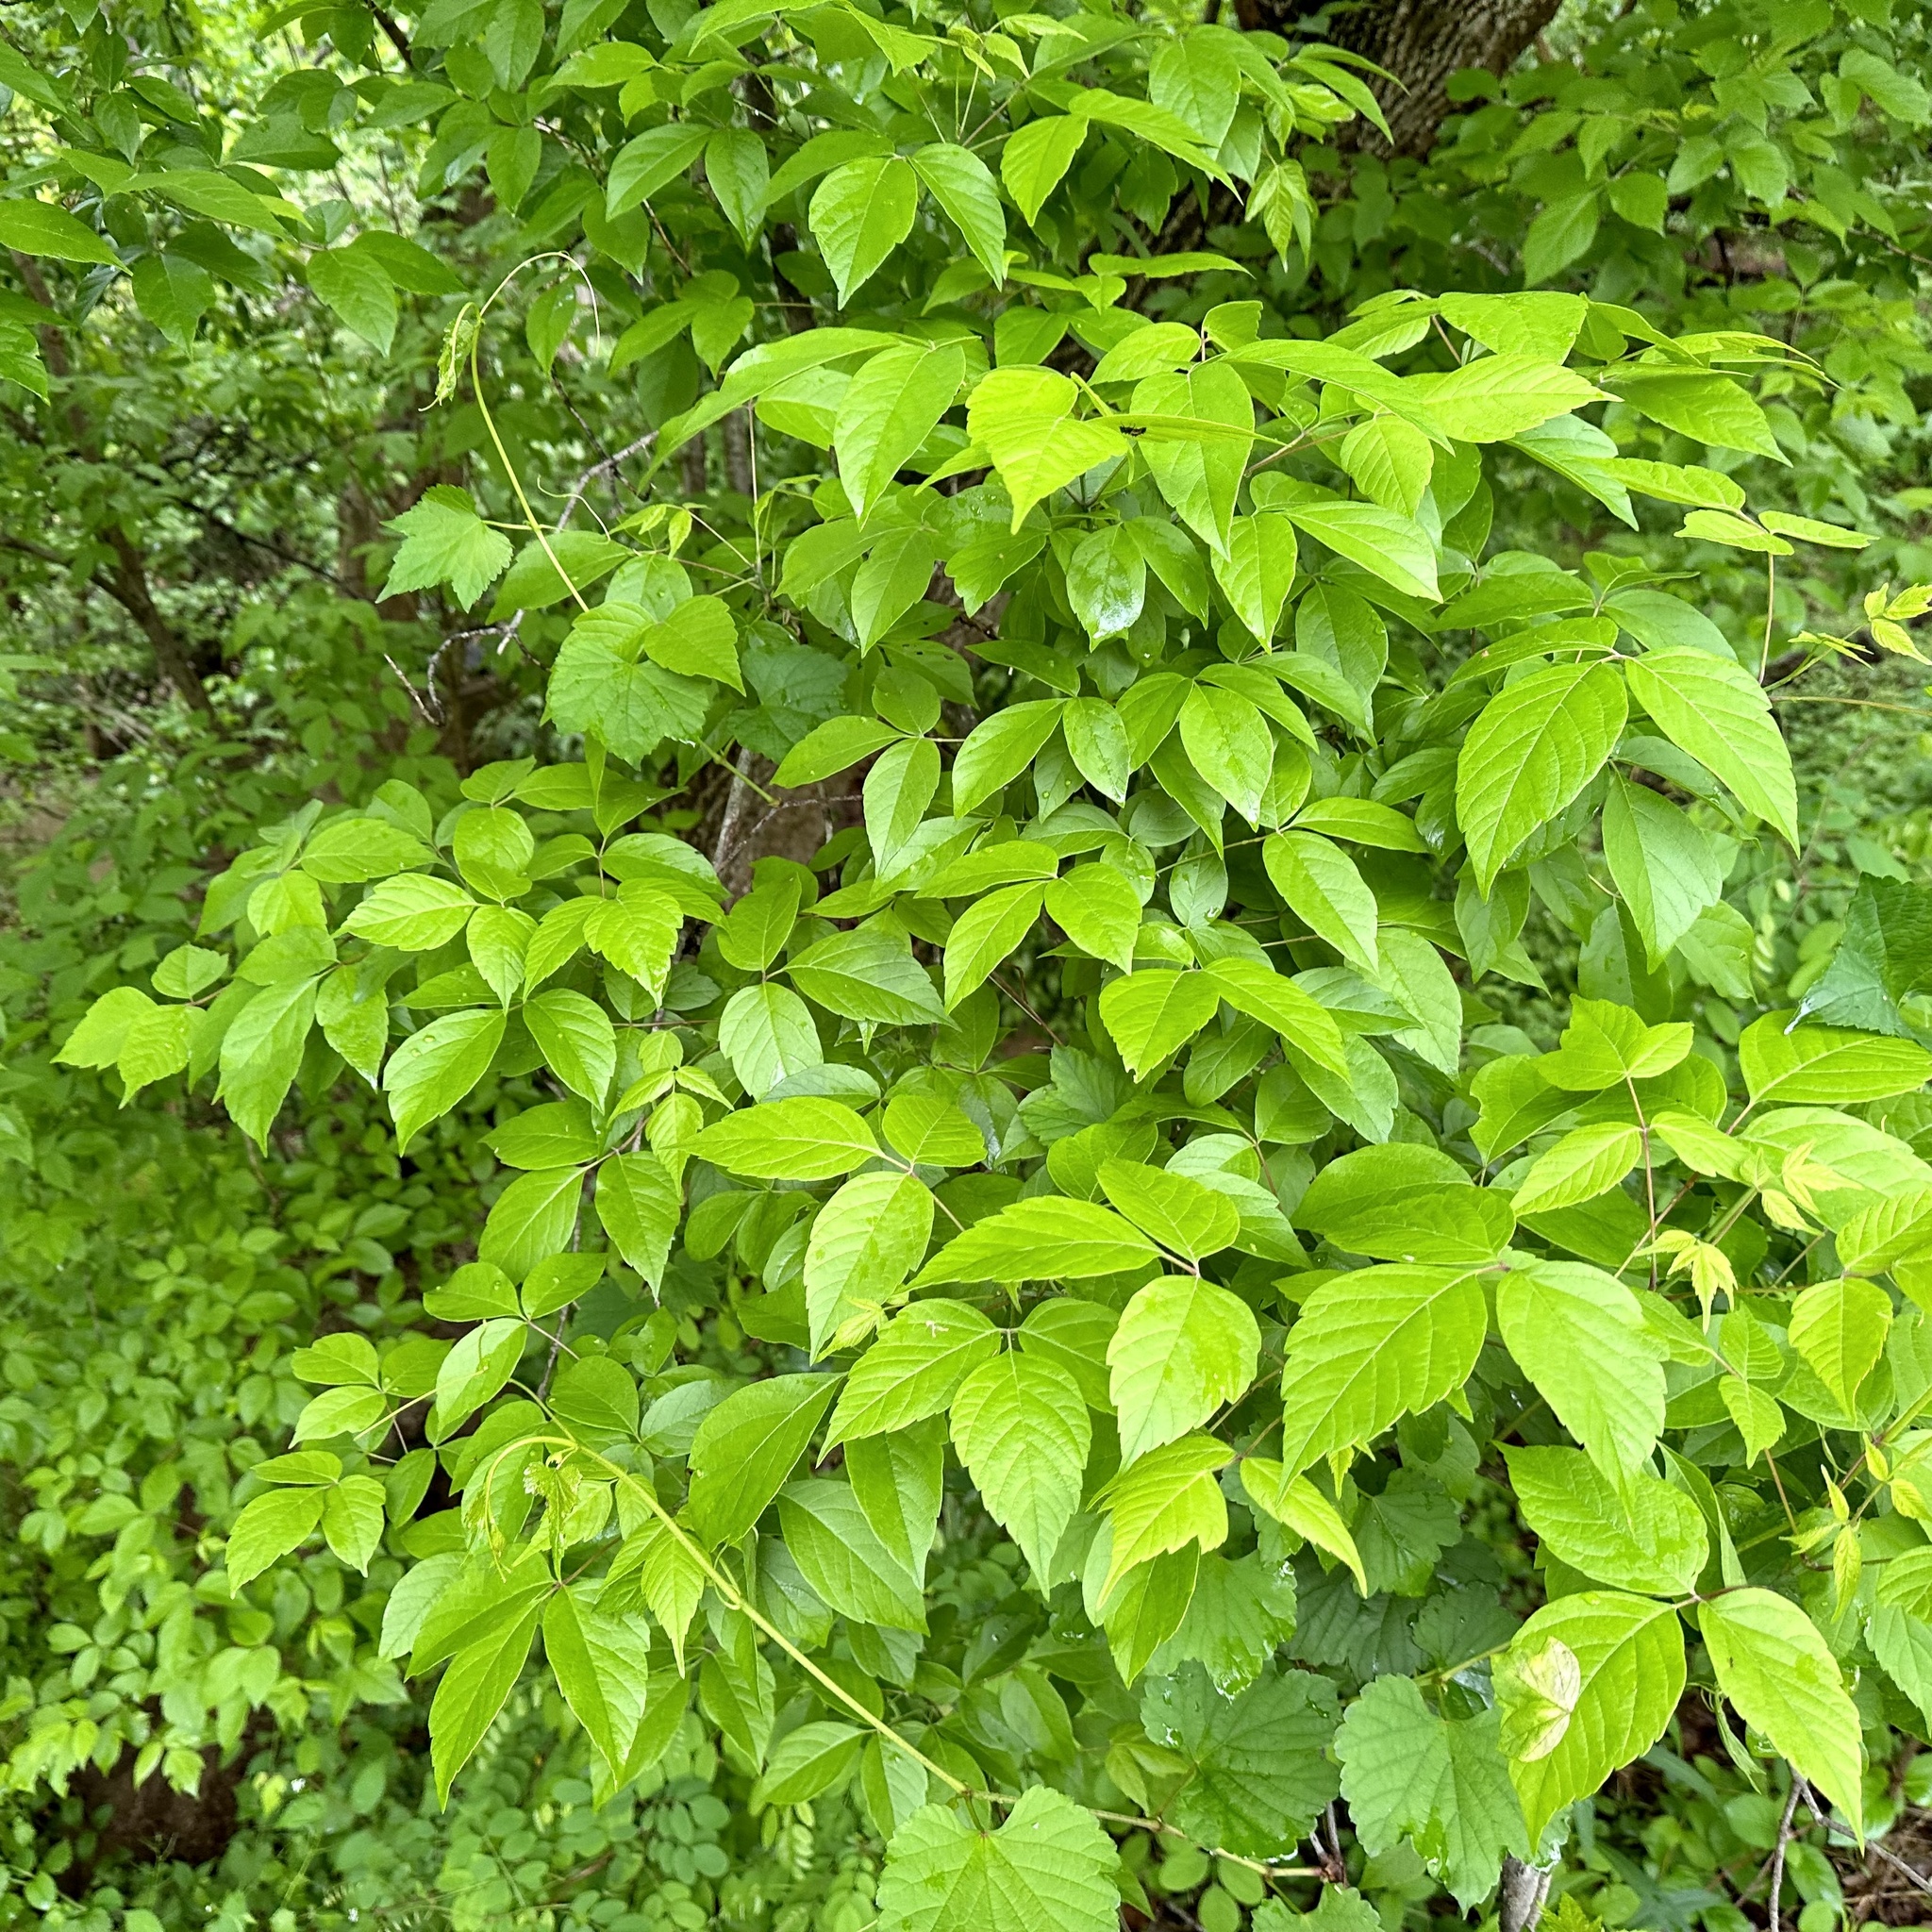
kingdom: Plantae
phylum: Tracheophyta
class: Magnoliopsida
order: Sapindales
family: Sapindaceae
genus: Acer
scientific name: Acer negundo
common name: Ashleaf maple
